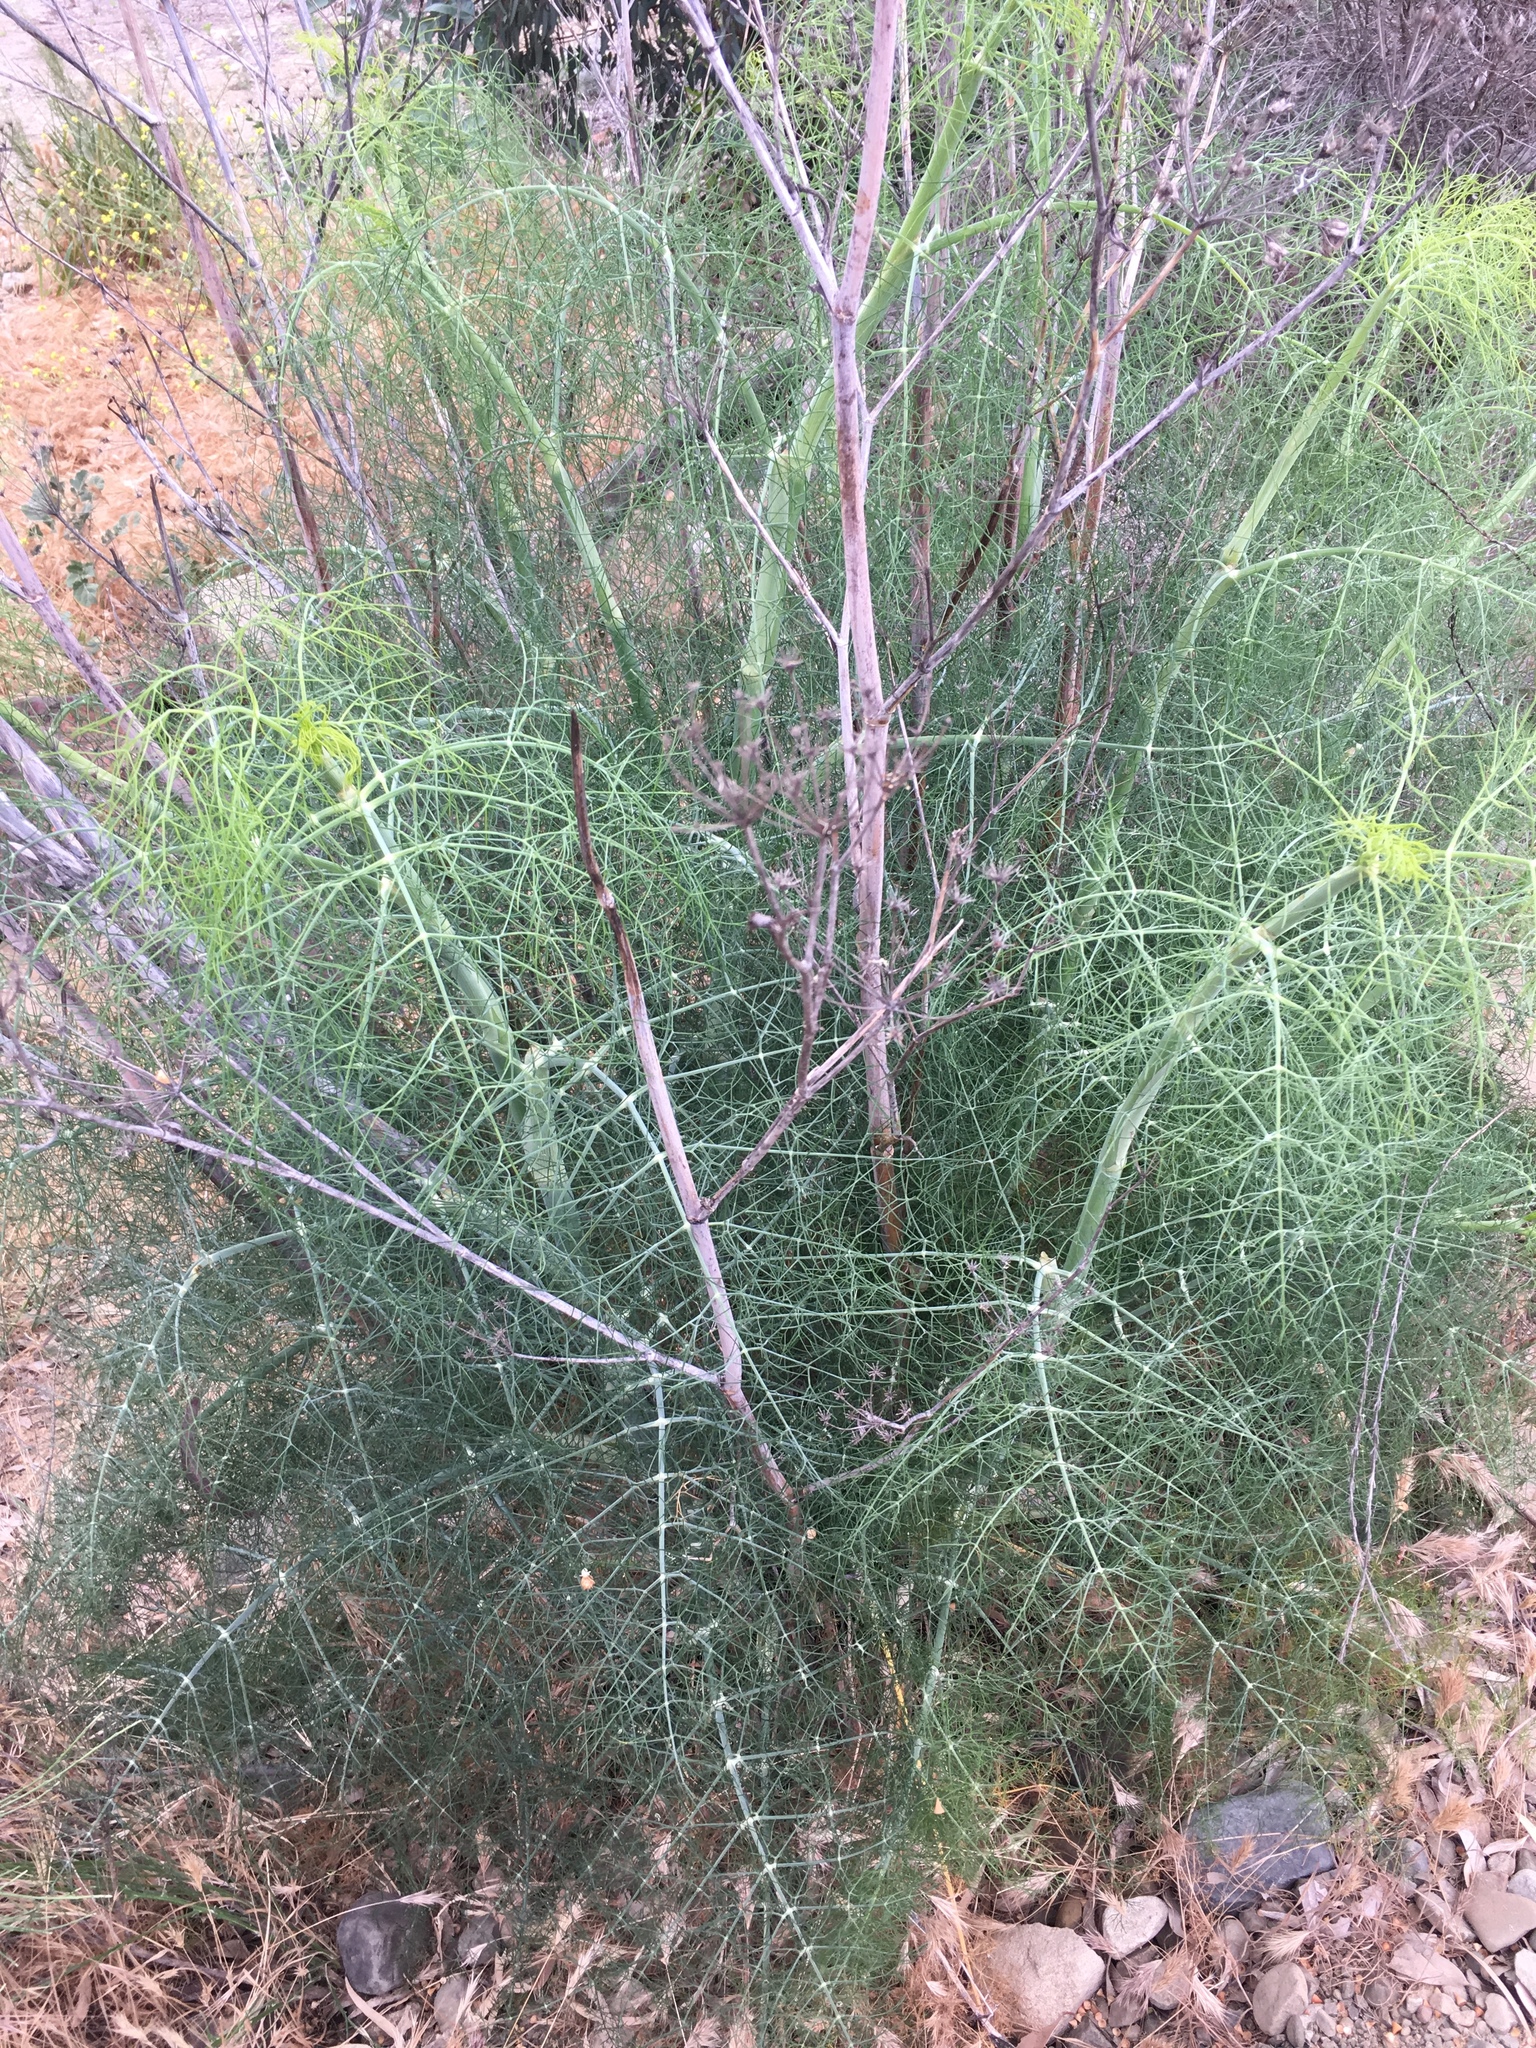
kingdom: Plantae
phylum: Tracheophyta
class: Magnoliopsida
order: Apiales
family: Apiaceae
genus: Foeniculum
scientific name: Foeniculum vulgare
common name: Fennel
